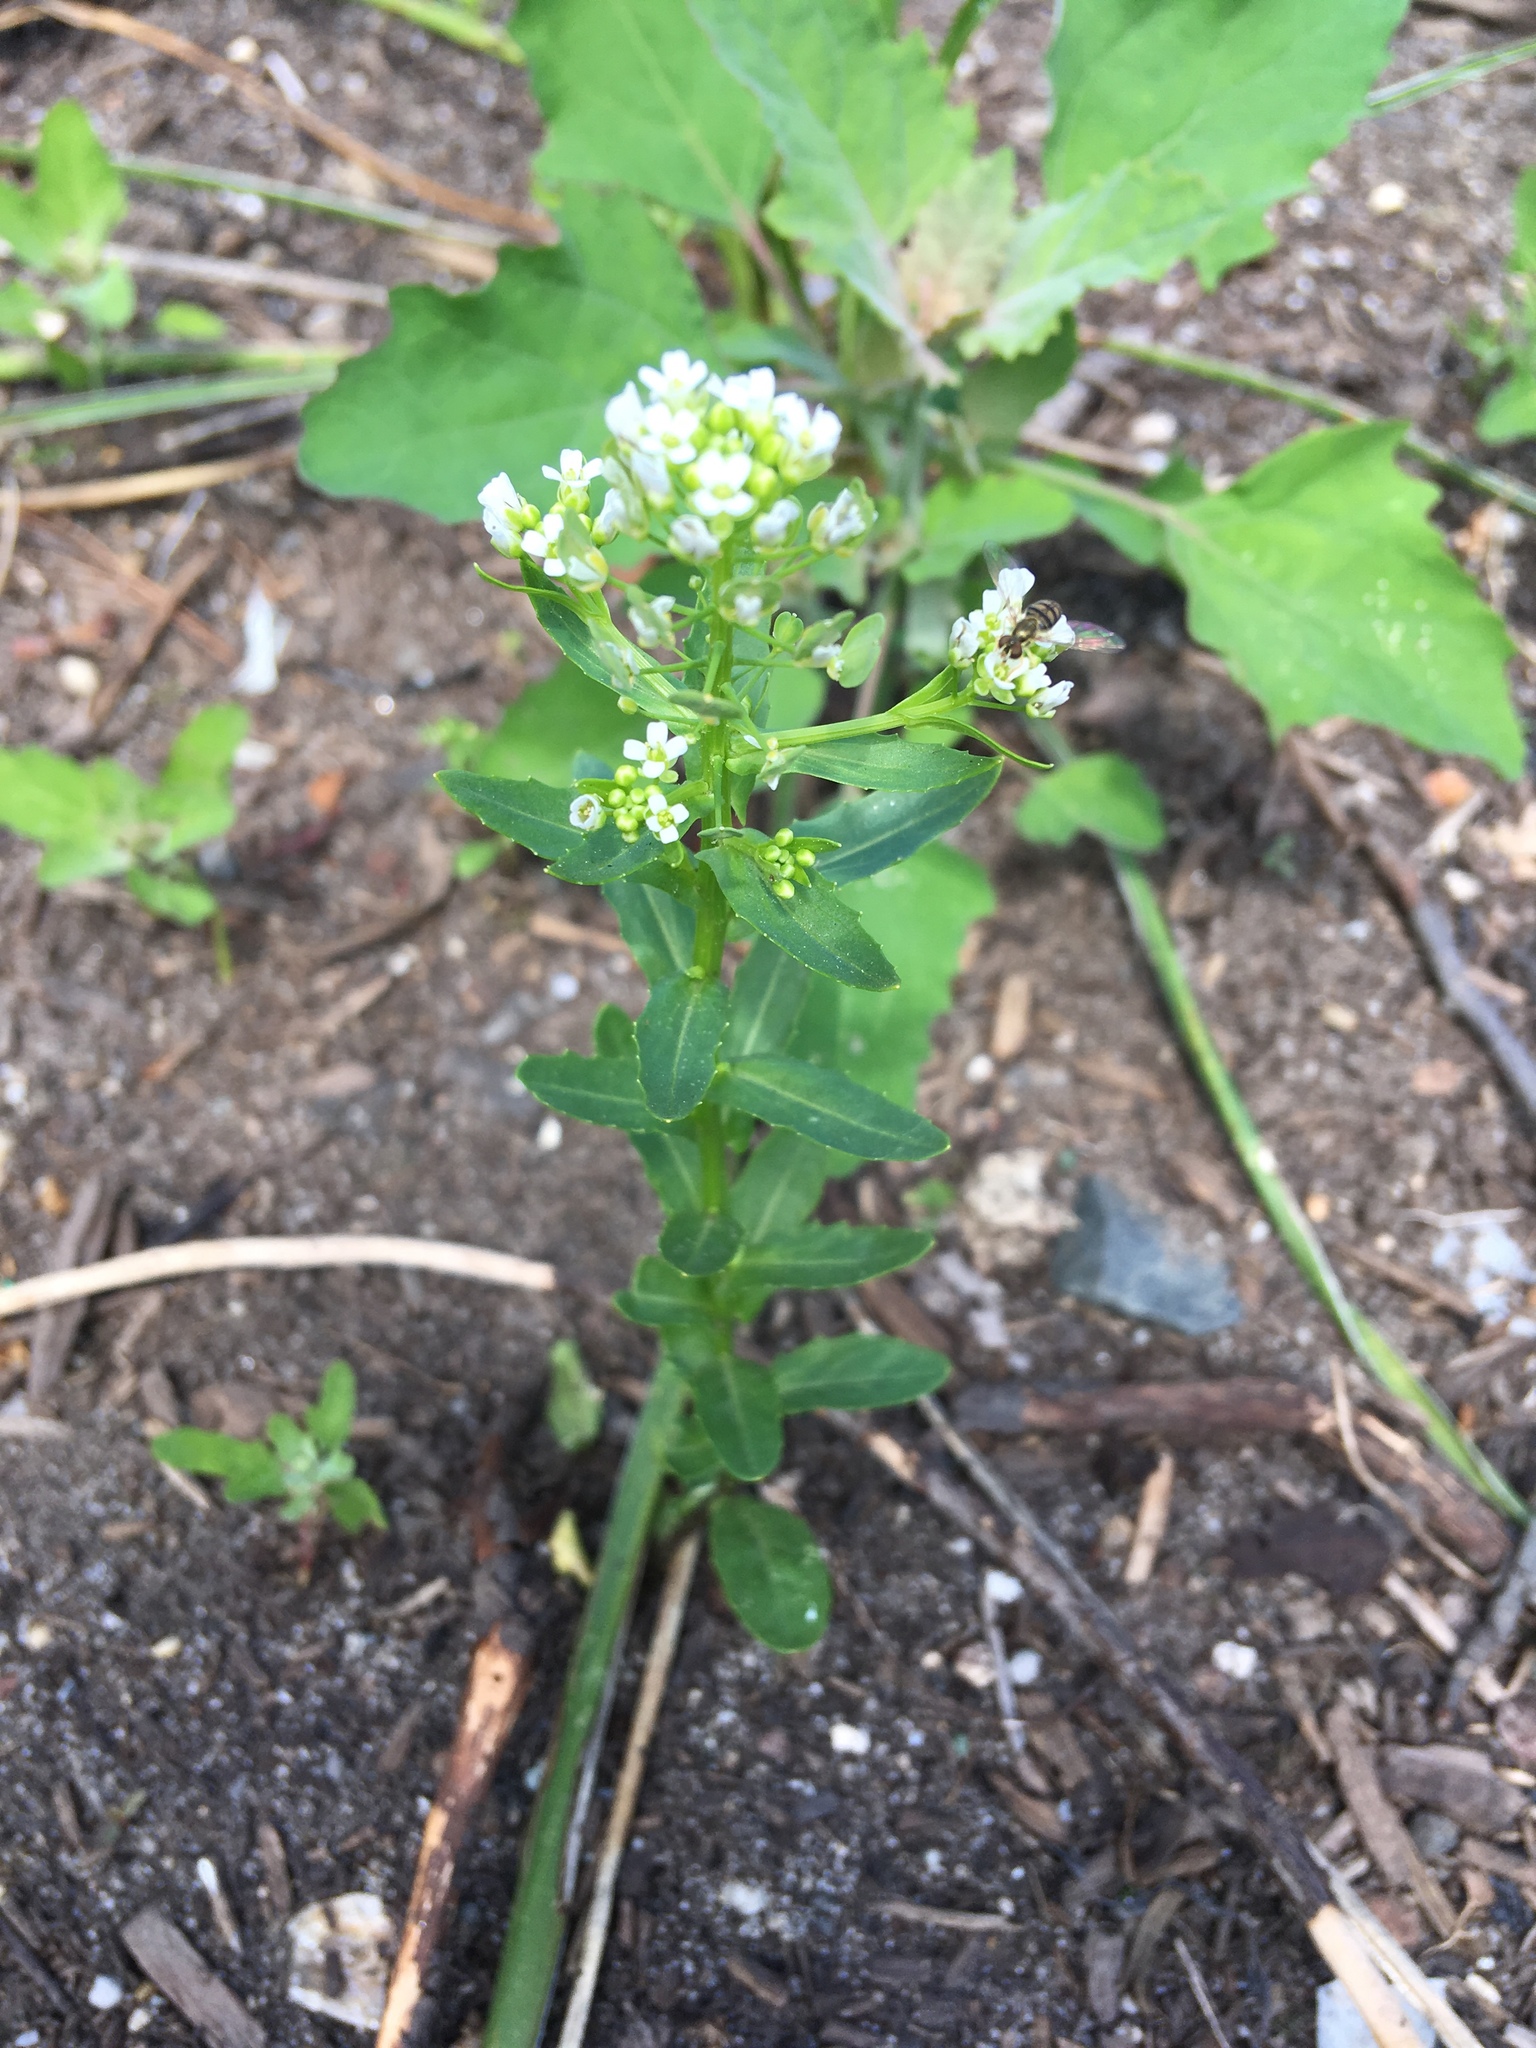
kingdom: Plantae
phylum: Tracheophyta
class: Magnoliopsida
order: Brassicales
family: Brassicaceae
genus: Thlaspi
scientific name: Thlaspi arvense
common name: Field pennycress
